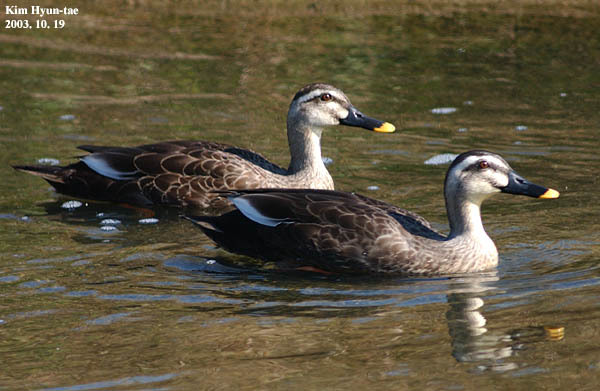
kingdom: Animalia
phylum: Chordata
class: Aves
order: Anseriformes
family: Anatidae
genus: Anas
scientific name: Anas zonorhyncha
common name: Eastern spot-billed duck
